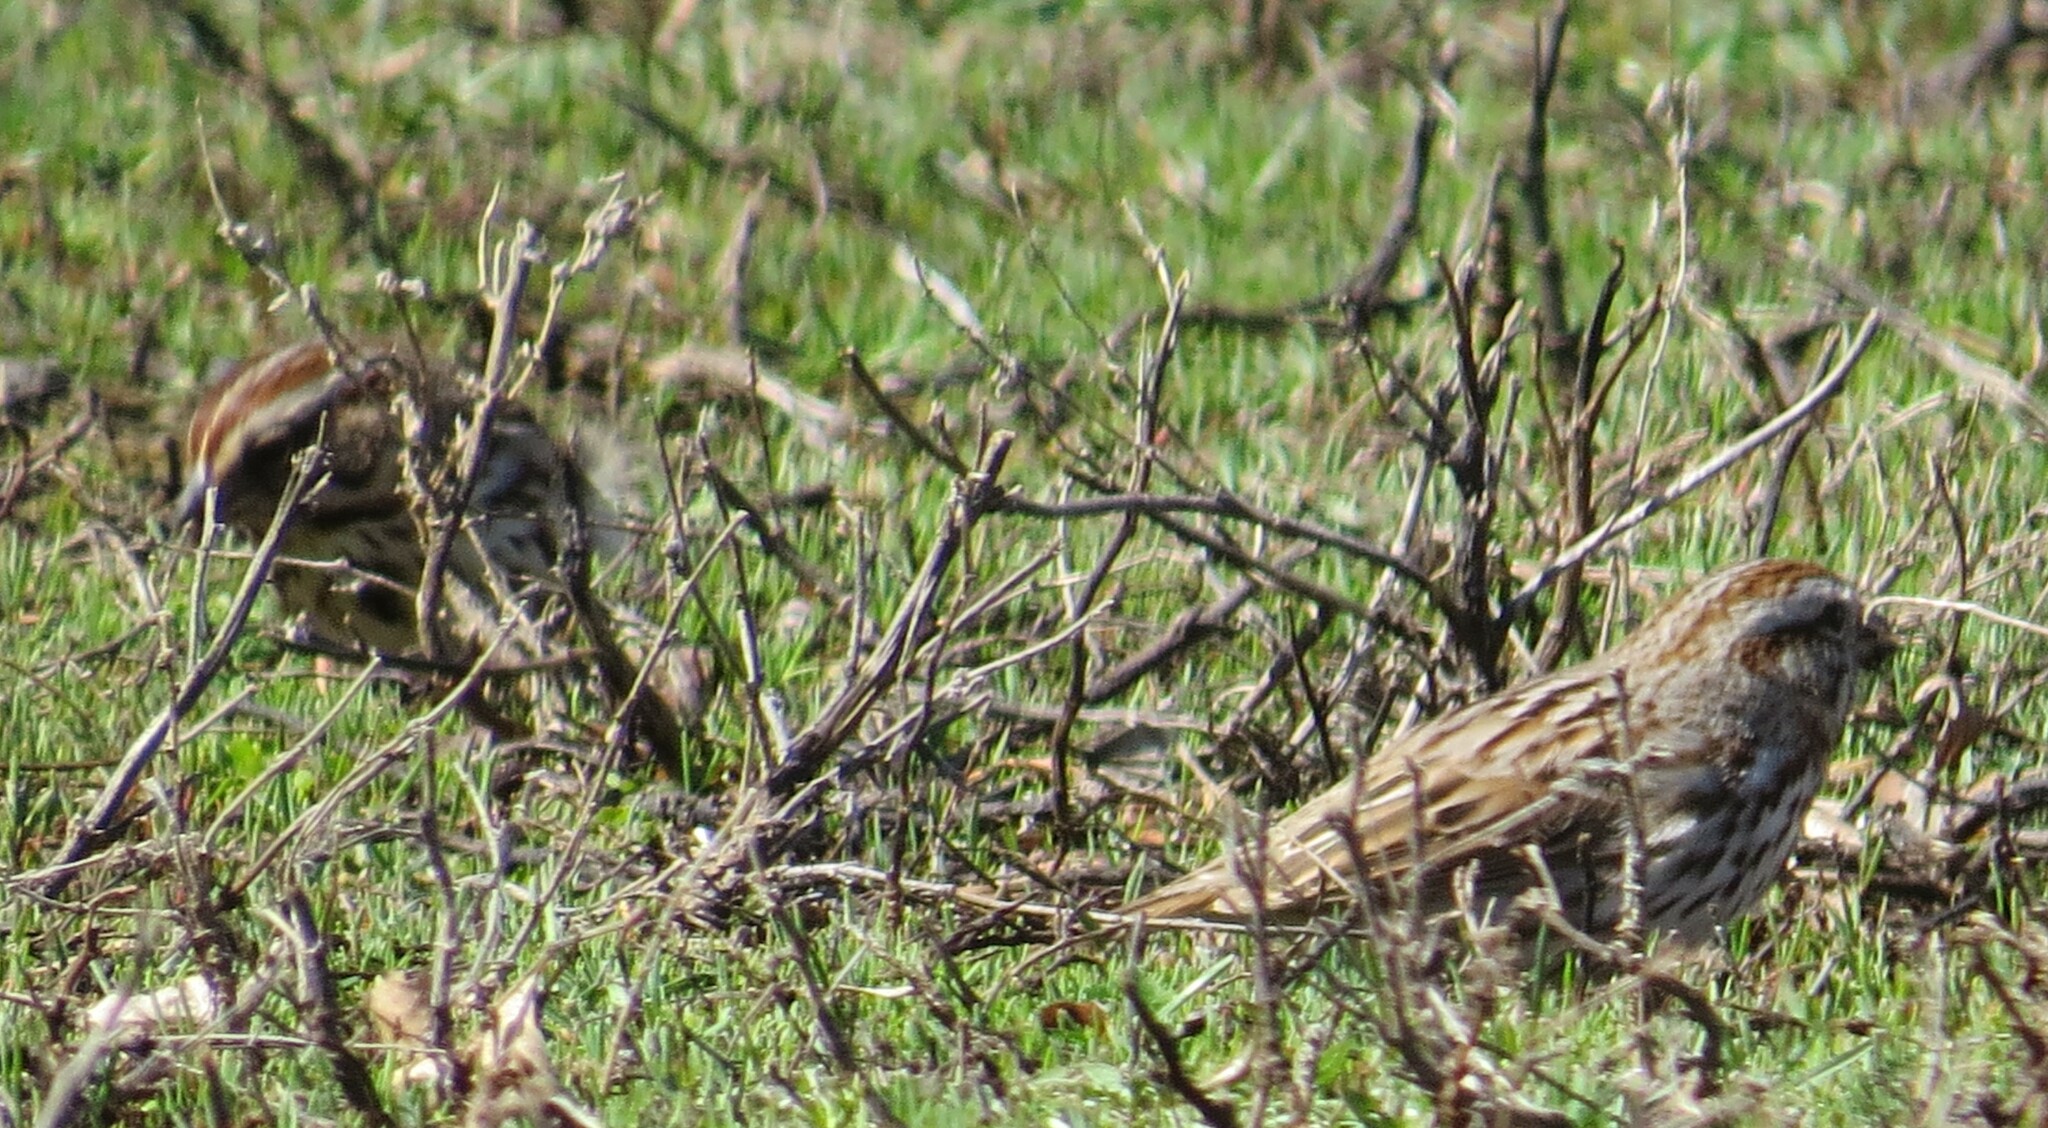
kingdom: Animalia
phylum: Chordata
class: Aves
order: Passeriformes
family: Passerellidae
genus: Melospiza
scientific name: Melospiza melodia
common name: Song sparrow
